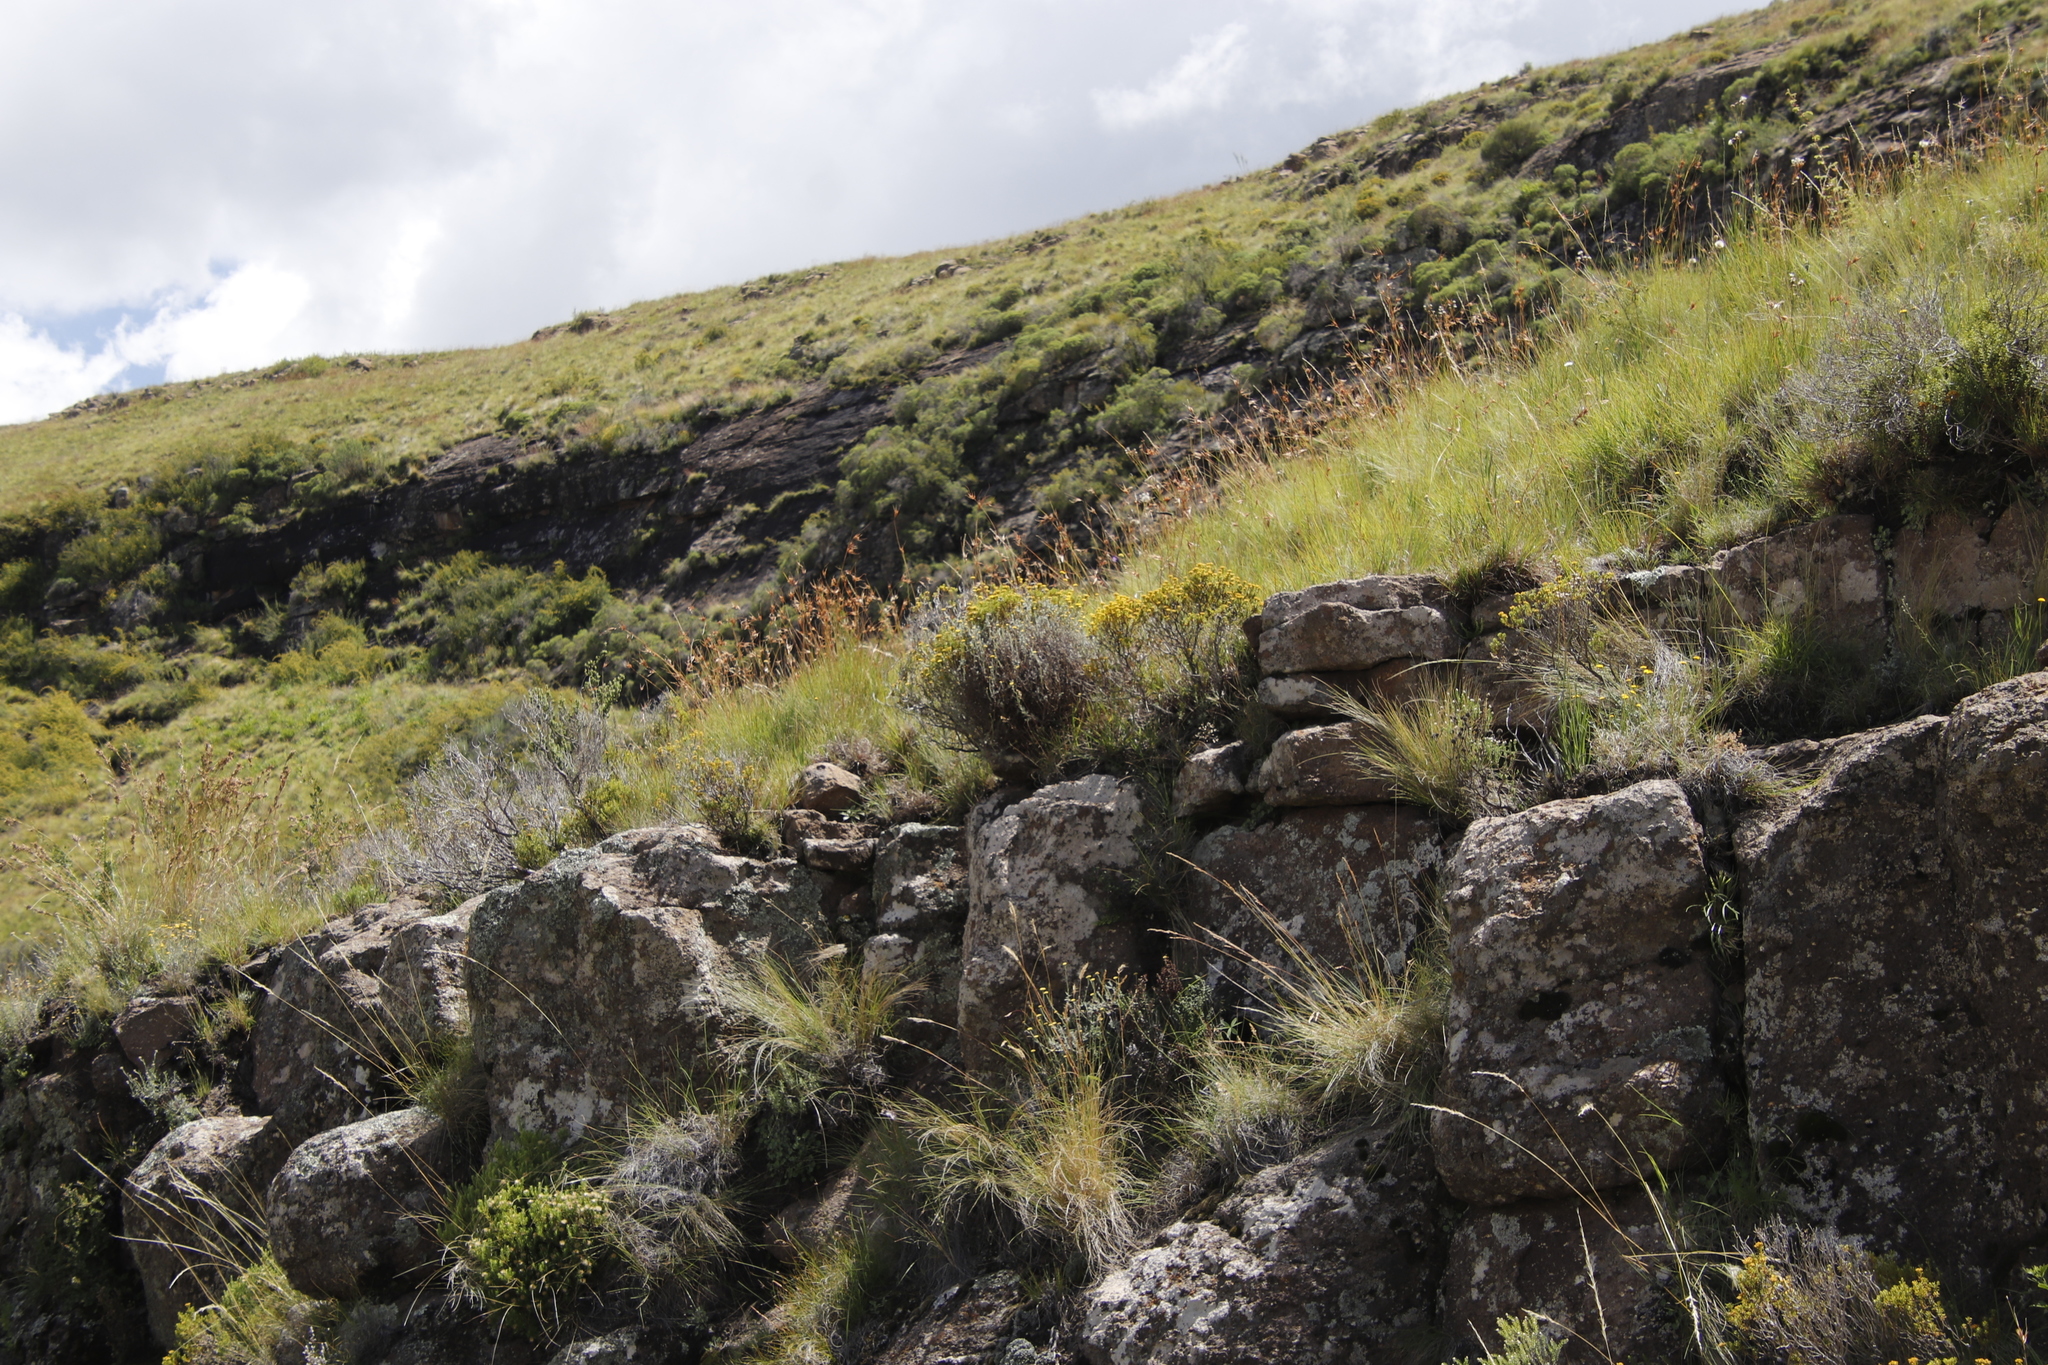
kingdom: Plantae
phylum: Tracheophyta
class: Liliopsida
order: Poales
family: Poaceae
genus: Themeda
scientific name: Themeda triandra
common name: Kangaroo grass
